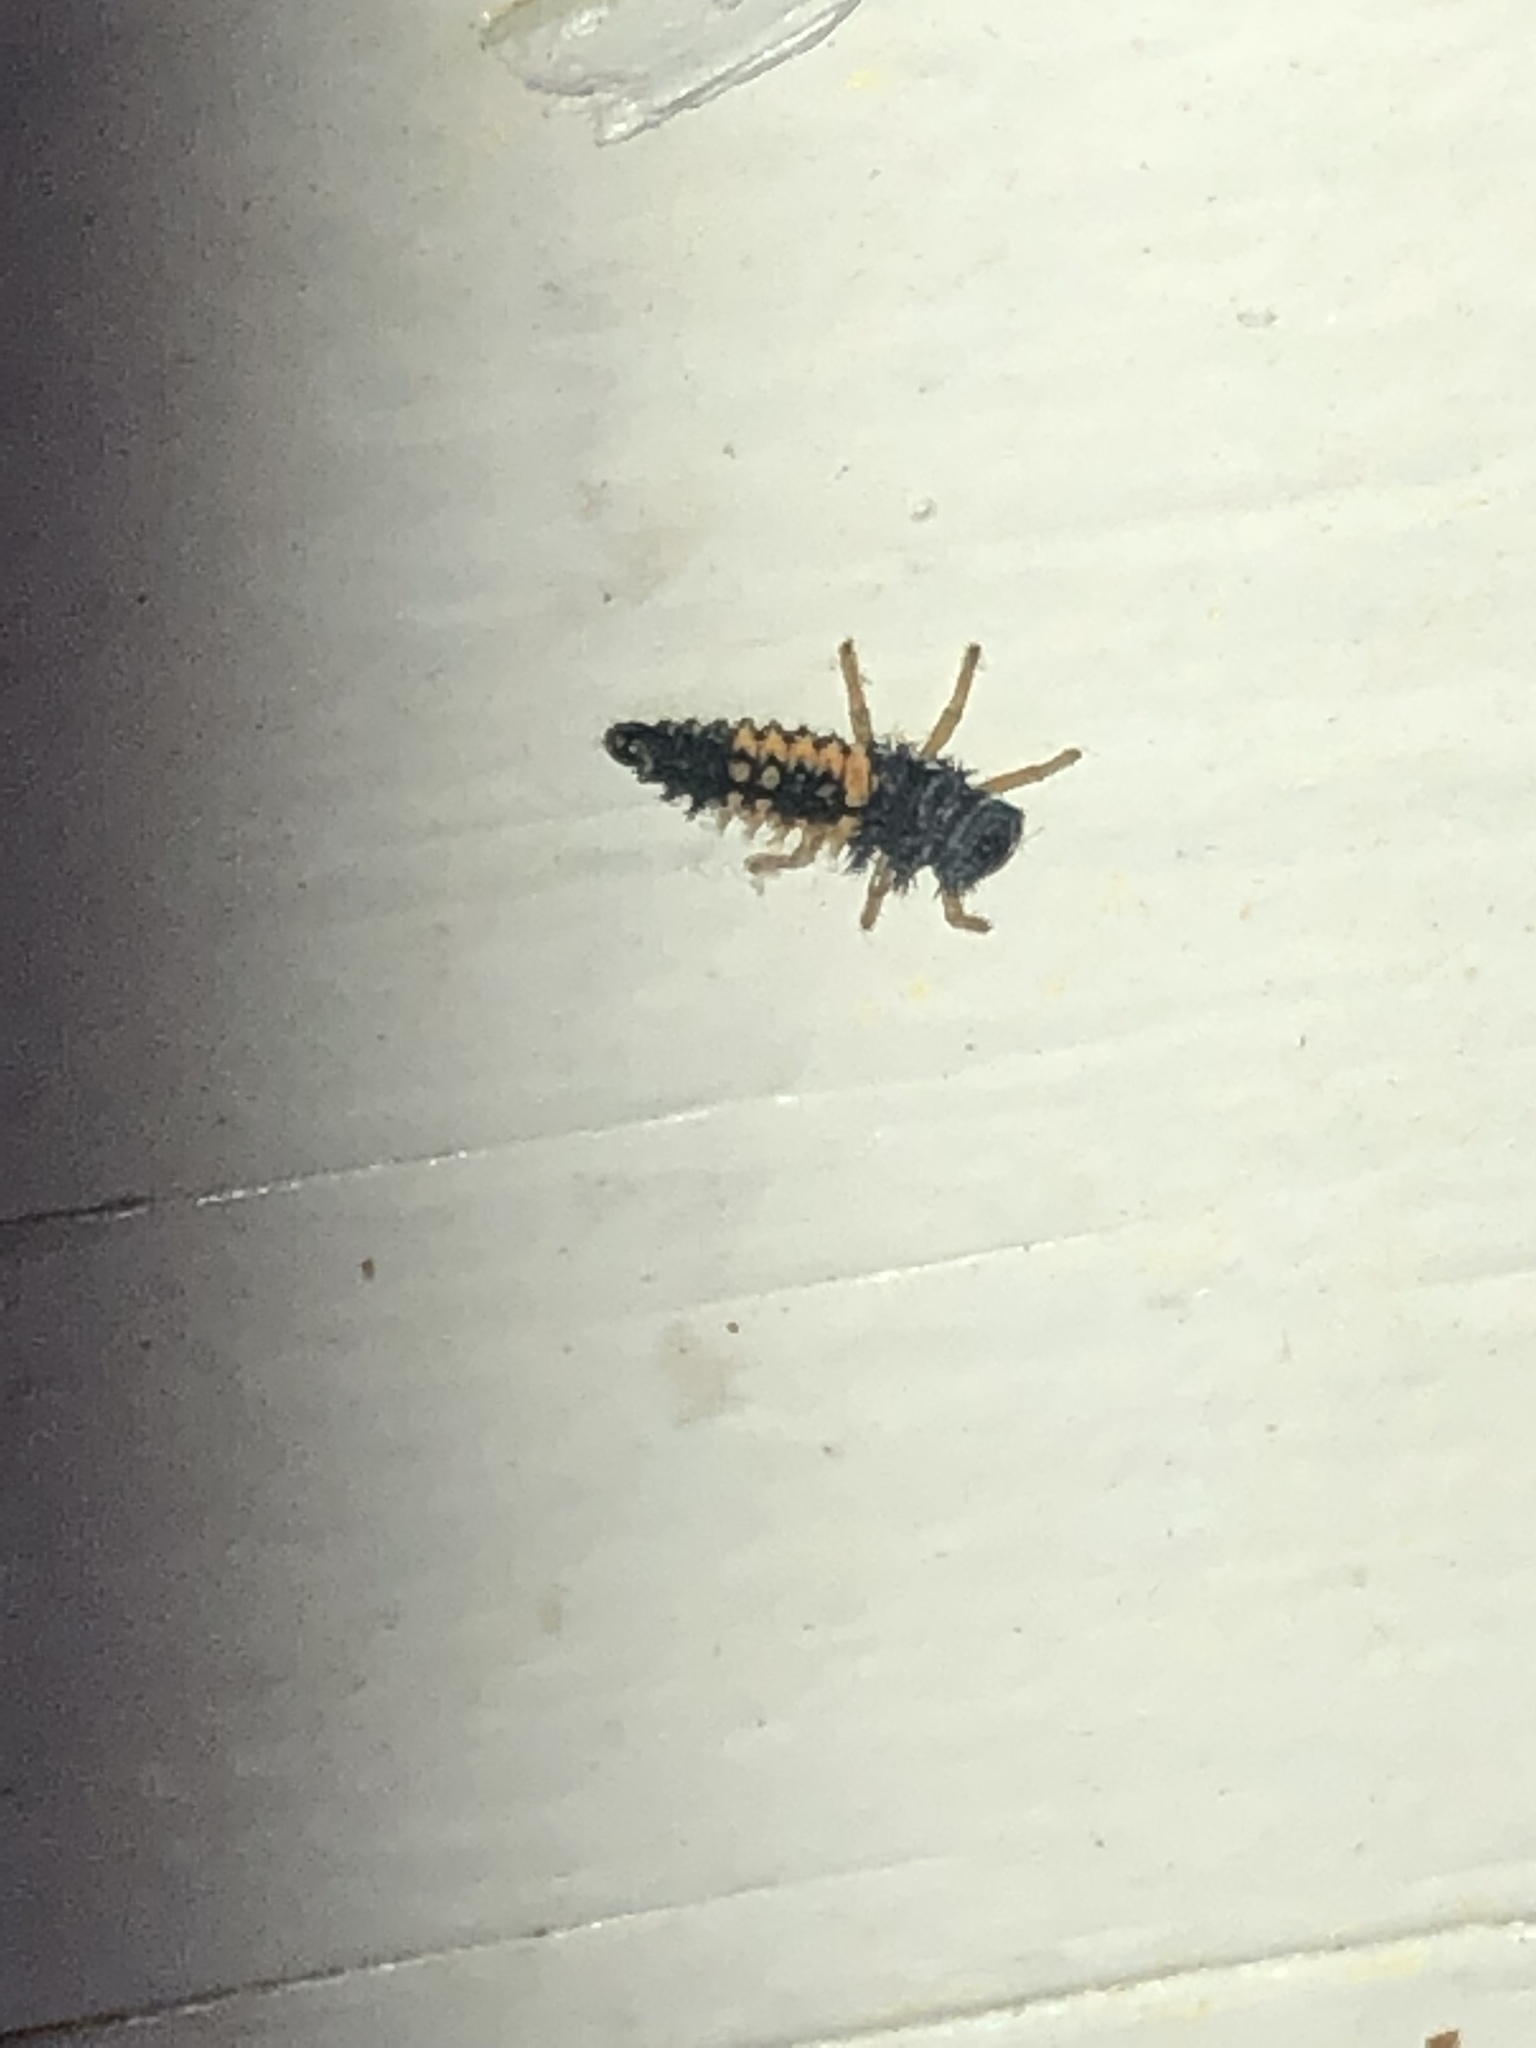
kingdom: Animalia
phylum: Arthropoda
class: Insecta
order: Coleoptera
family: Coccinellidae
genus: Harmonia
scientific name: Harmonia axyridis
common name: Harlequin ladybird
